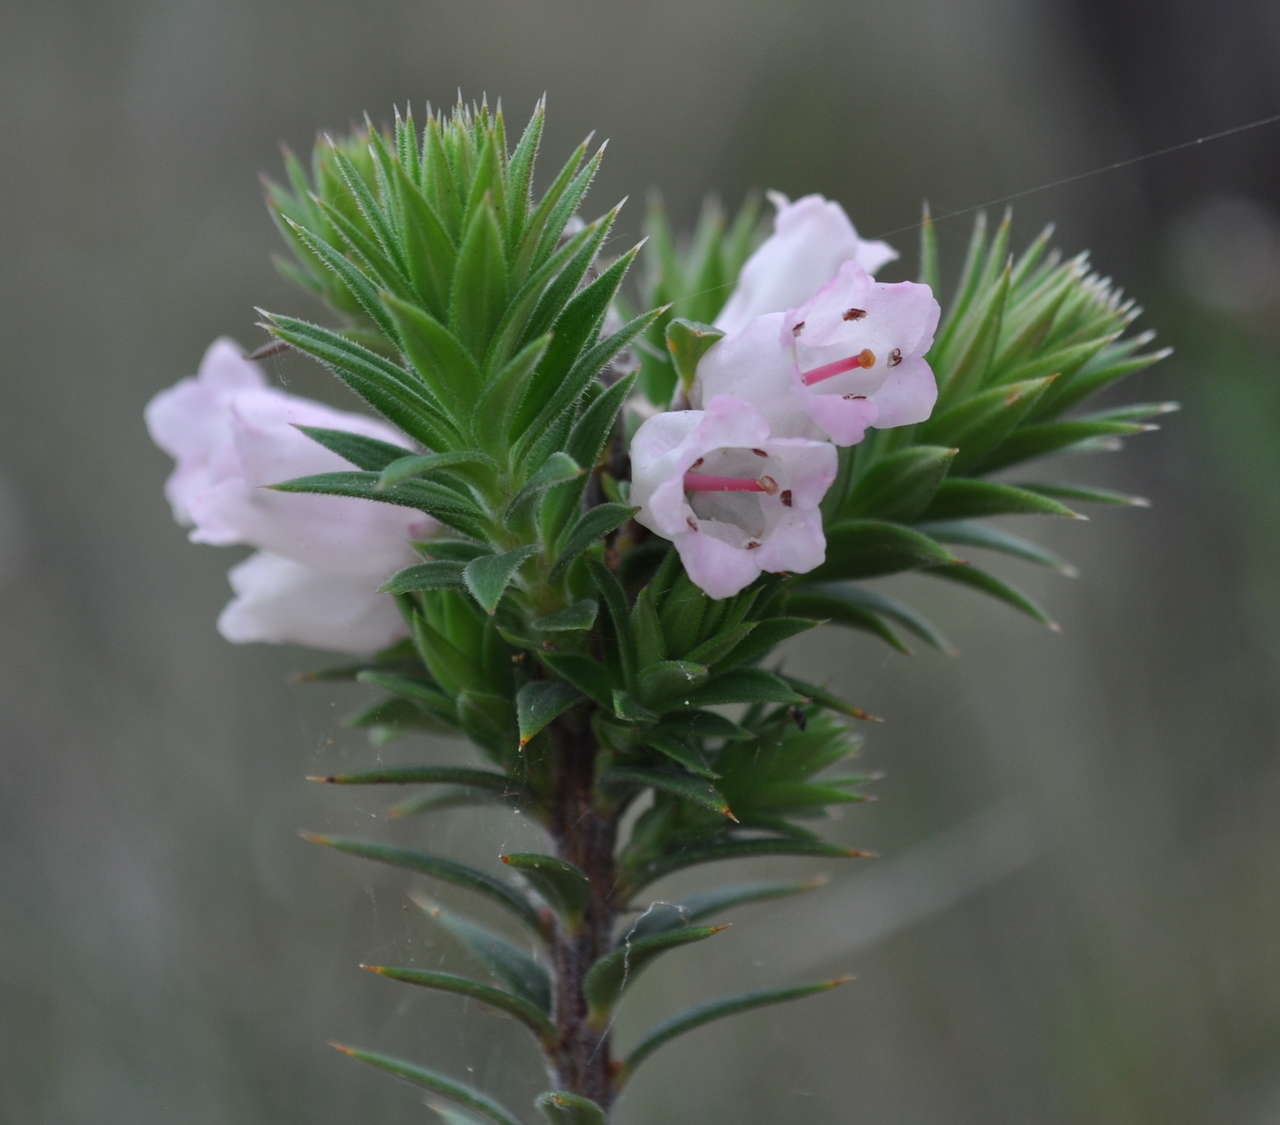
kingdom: Plantae
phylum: Tracheophyta
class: Magnoliopsida
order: Ericales
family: Ericaceae
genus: Epacris
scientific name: Epacris impressa
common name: Common-heath
